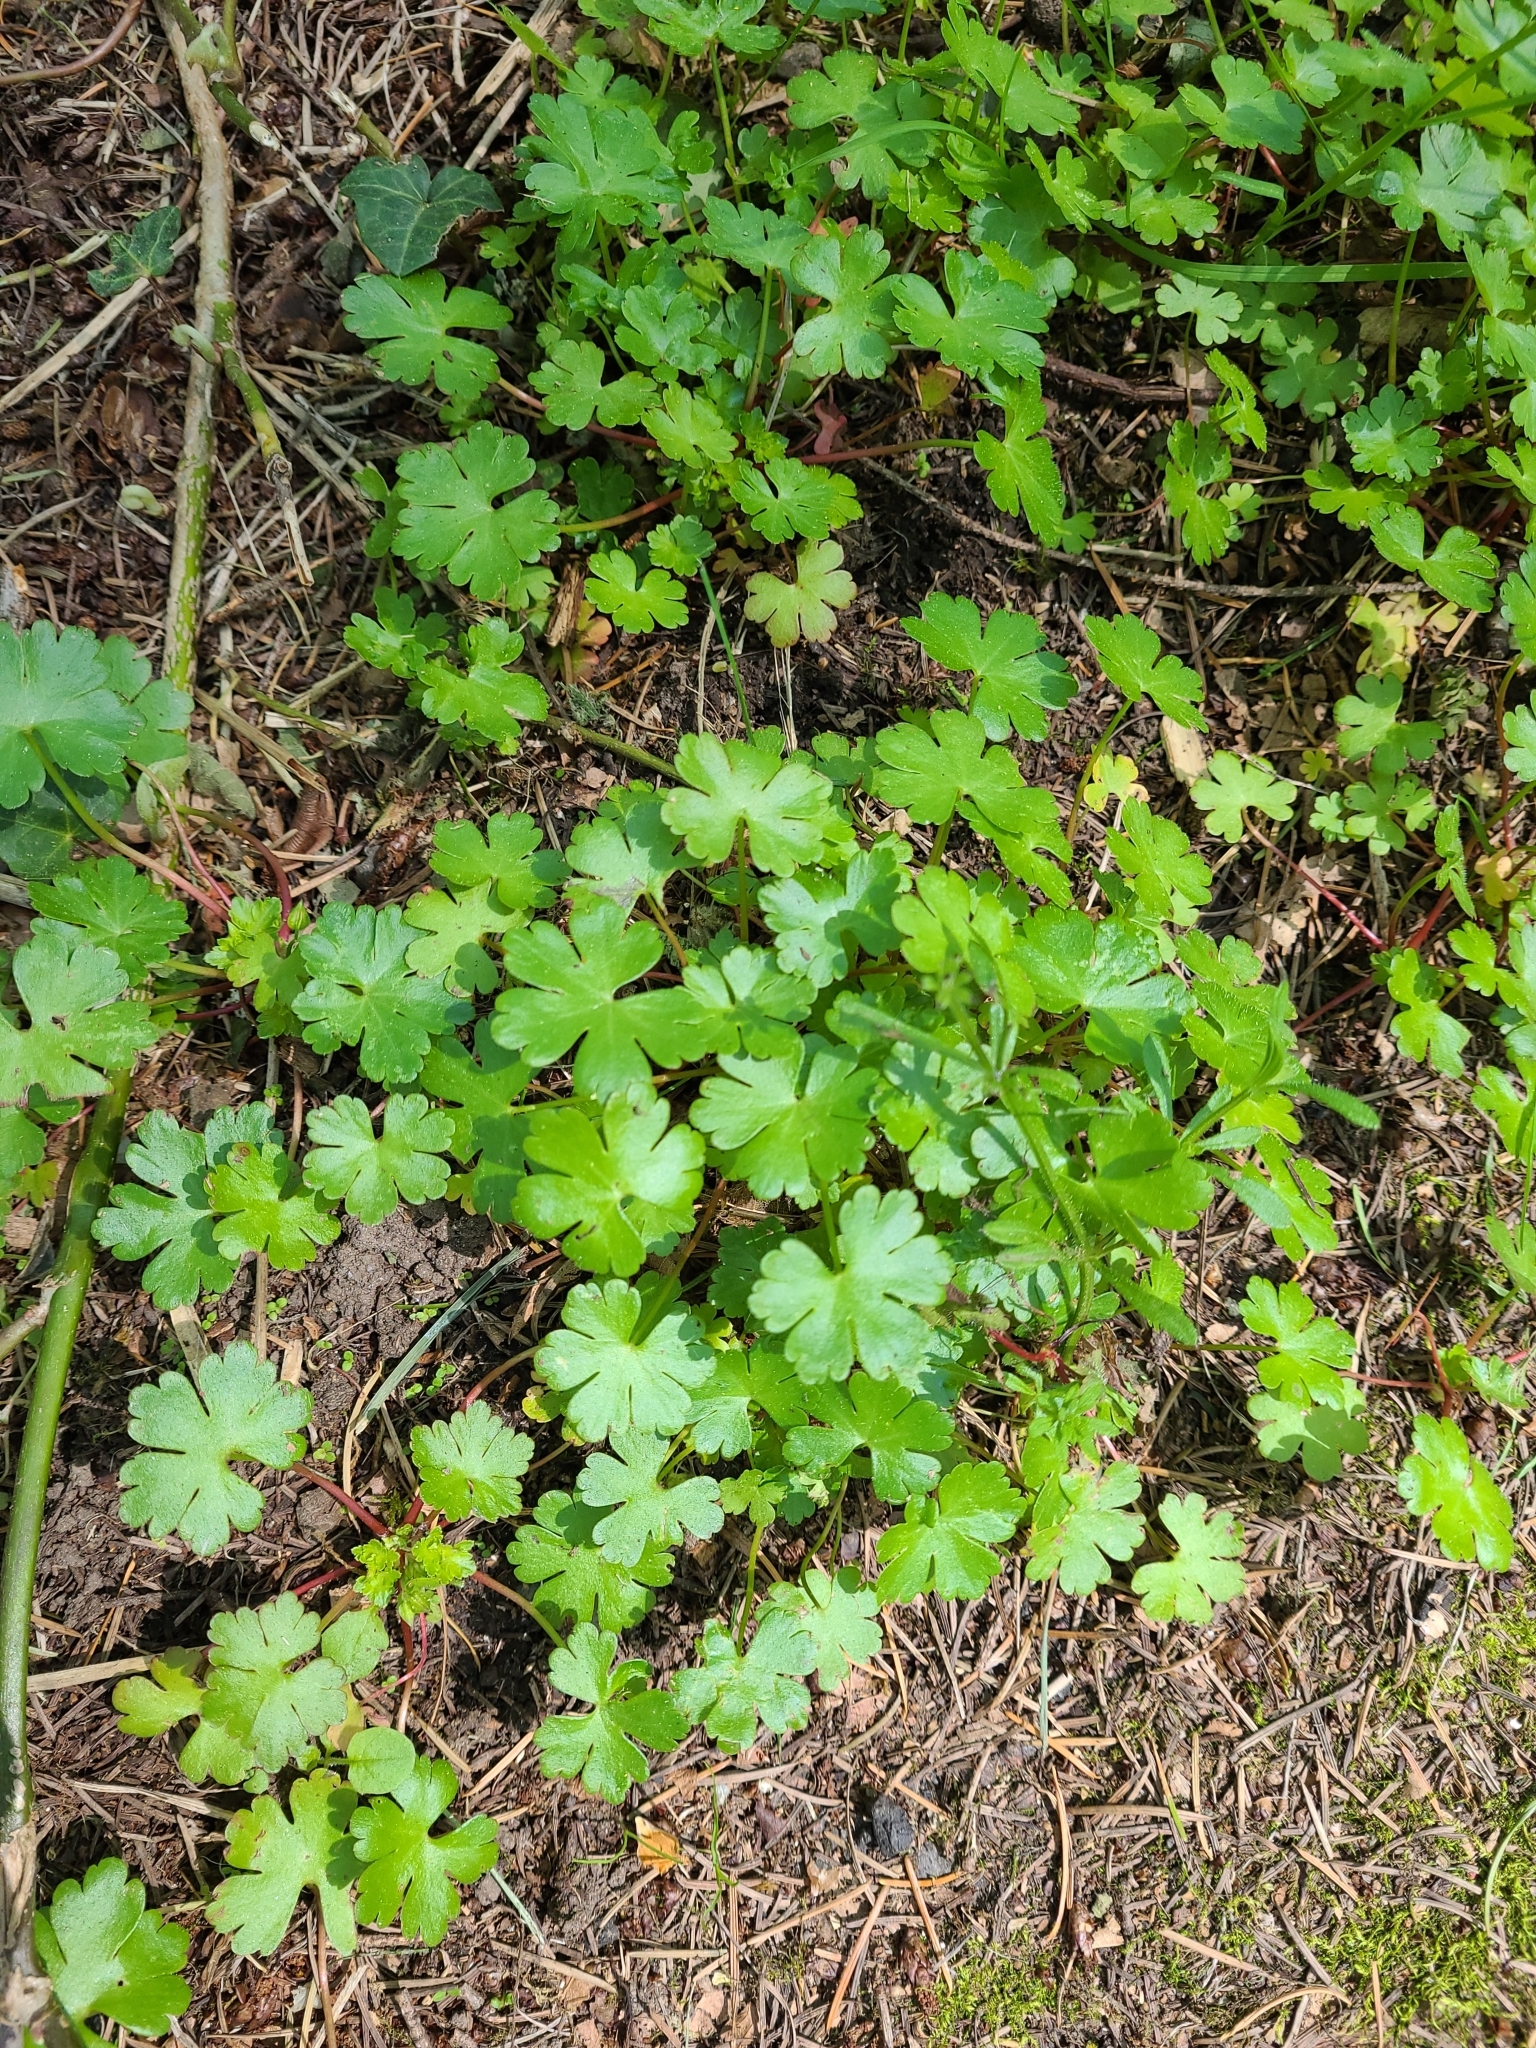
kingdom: Plantae
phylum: Tracheophyta
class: Magnoliopsida
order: Geraniales
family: Geraniaceae
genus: Geranium
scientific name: Geranium lucidum
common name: Shining crane's-bill
